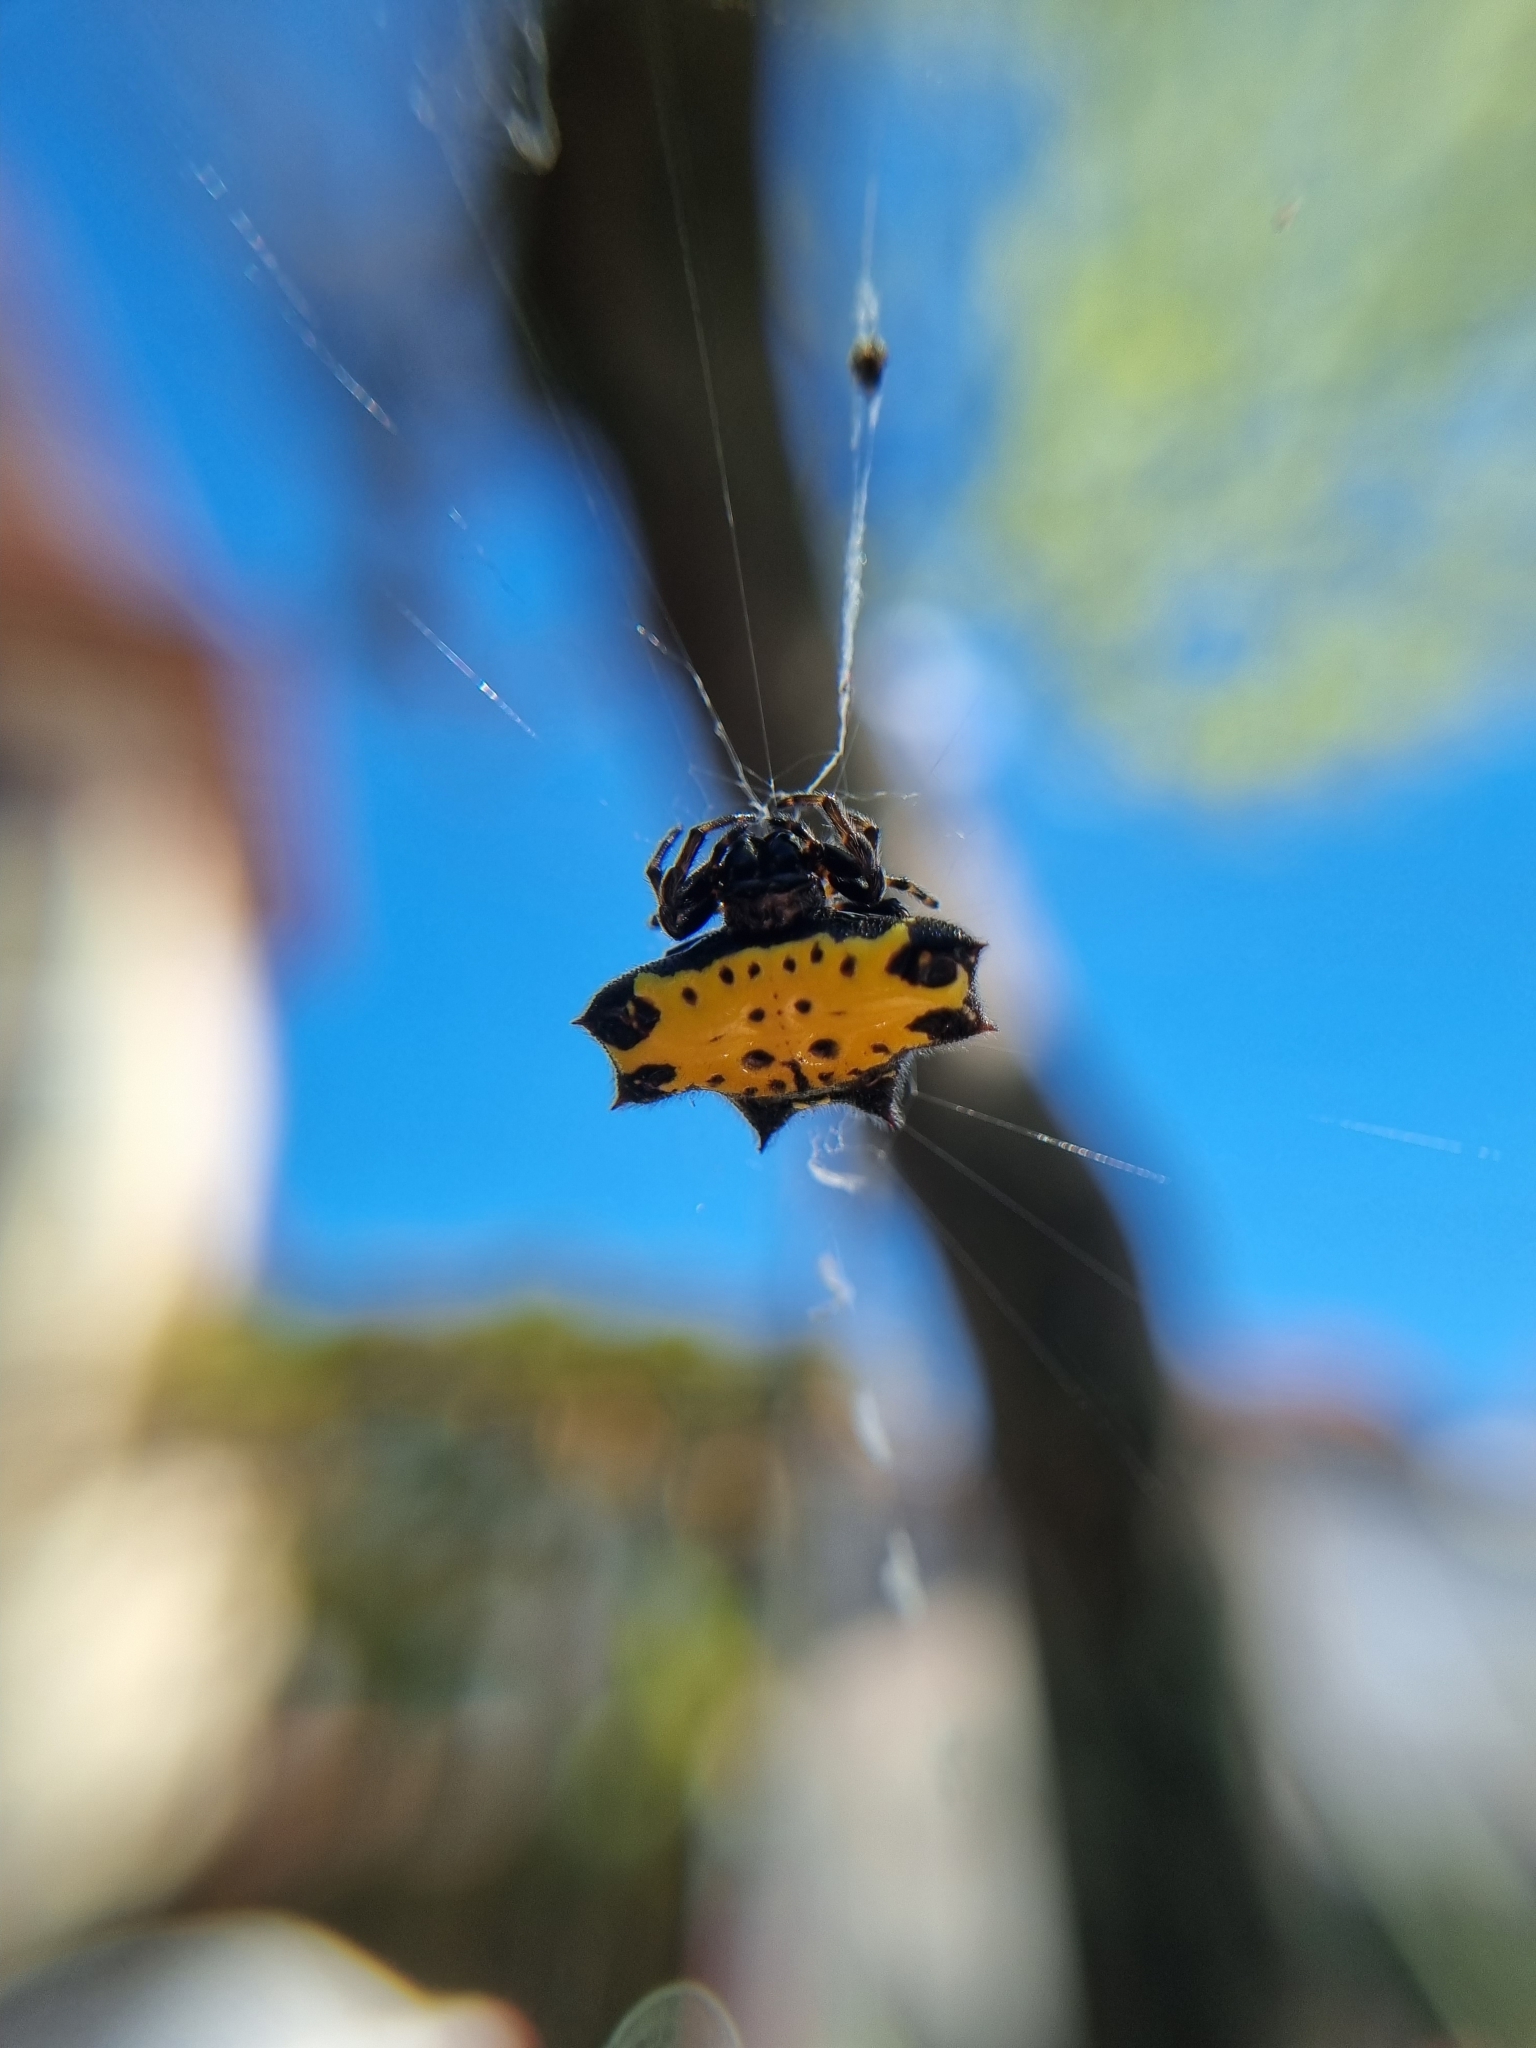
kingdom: Animalia
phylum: Arthropoda
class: Arachnida
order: Araneae
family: Araneidae
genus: Gasteracantha
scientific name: Gasteracantha cancriformis
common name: Orb weavers
